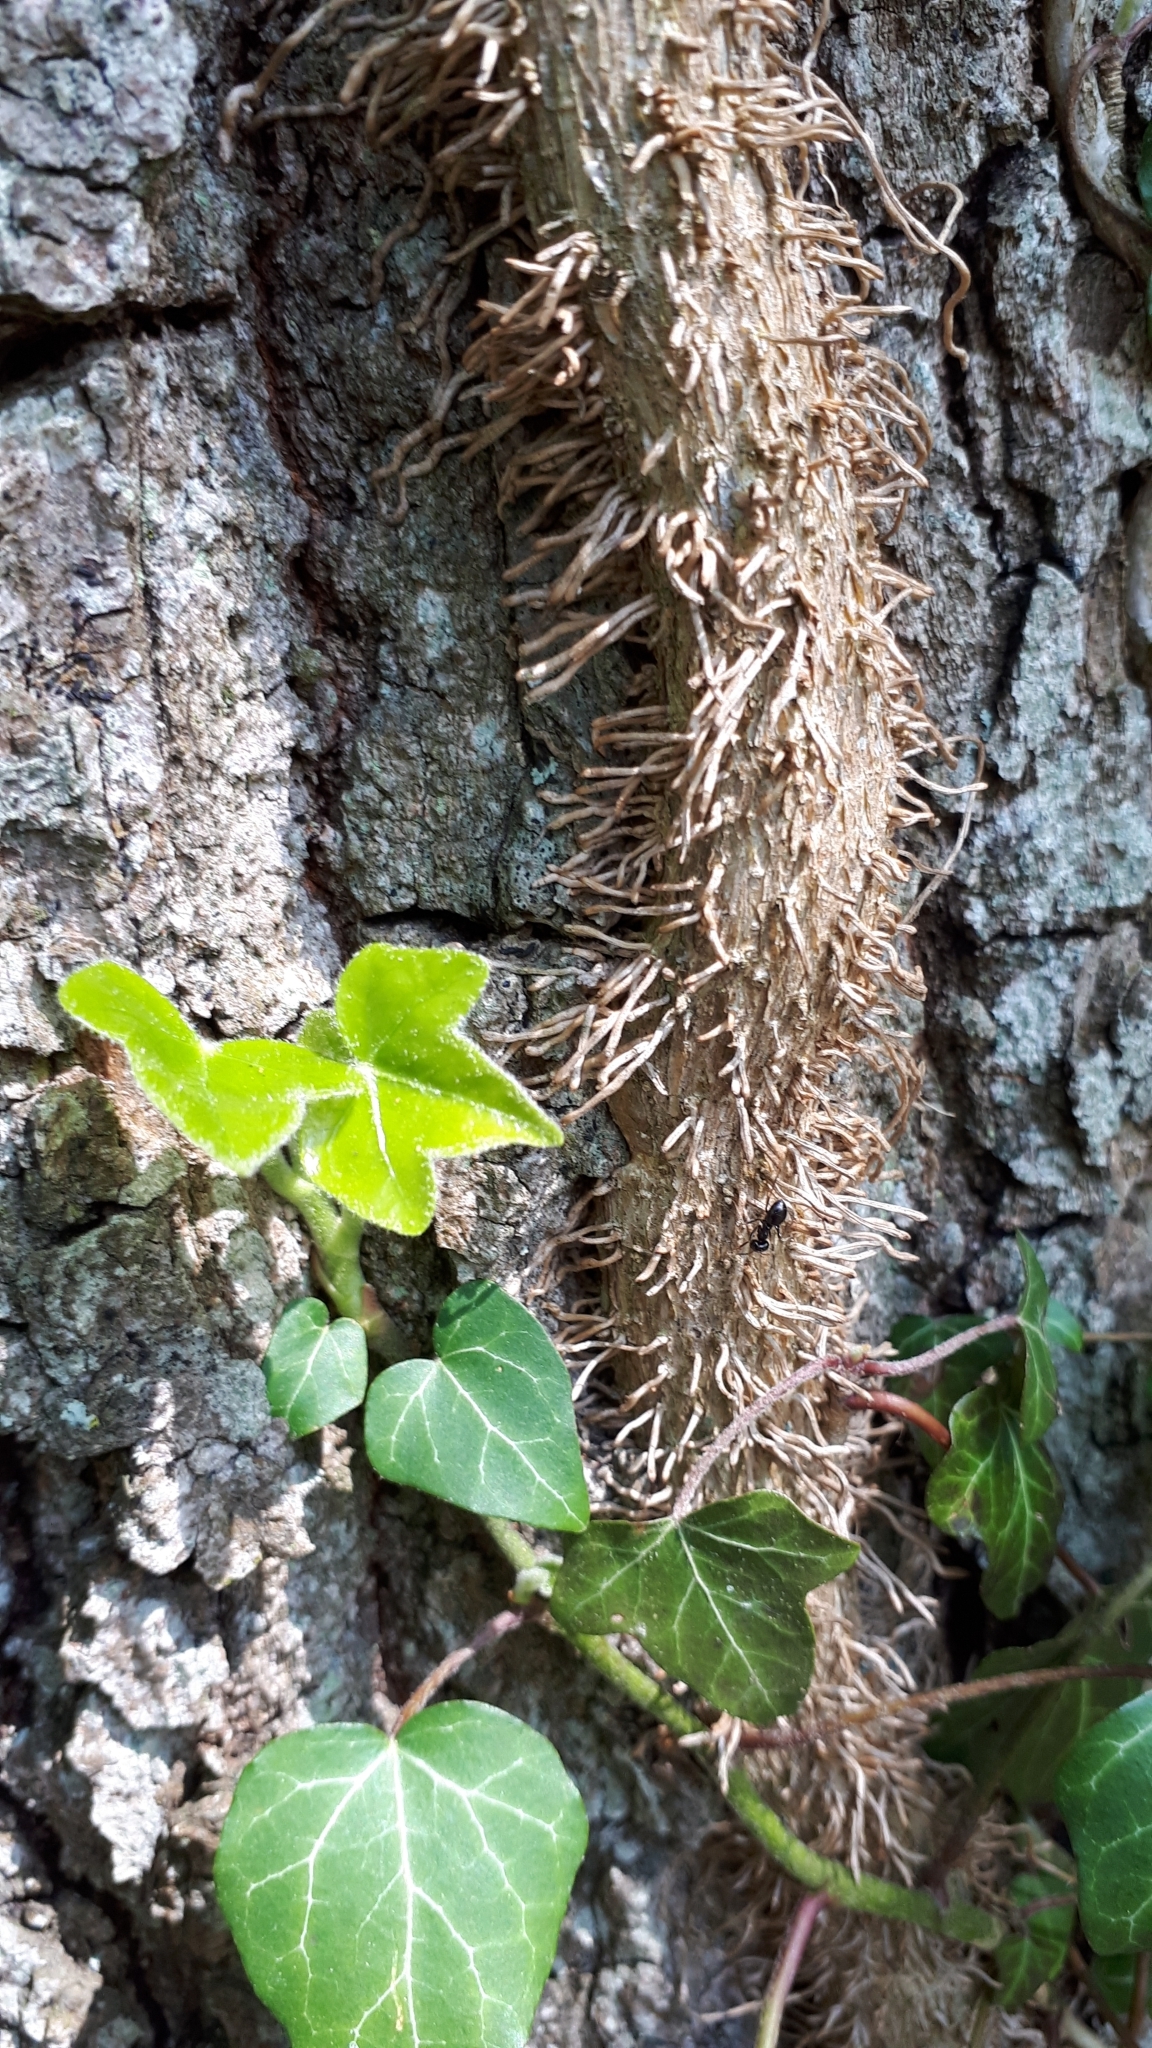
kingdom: Plantae
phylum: Tracheophyta
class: Magnoliopsida
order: Apiales
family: Araliaceae
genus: Hedera
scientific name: Hedera helix
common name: Ivy
